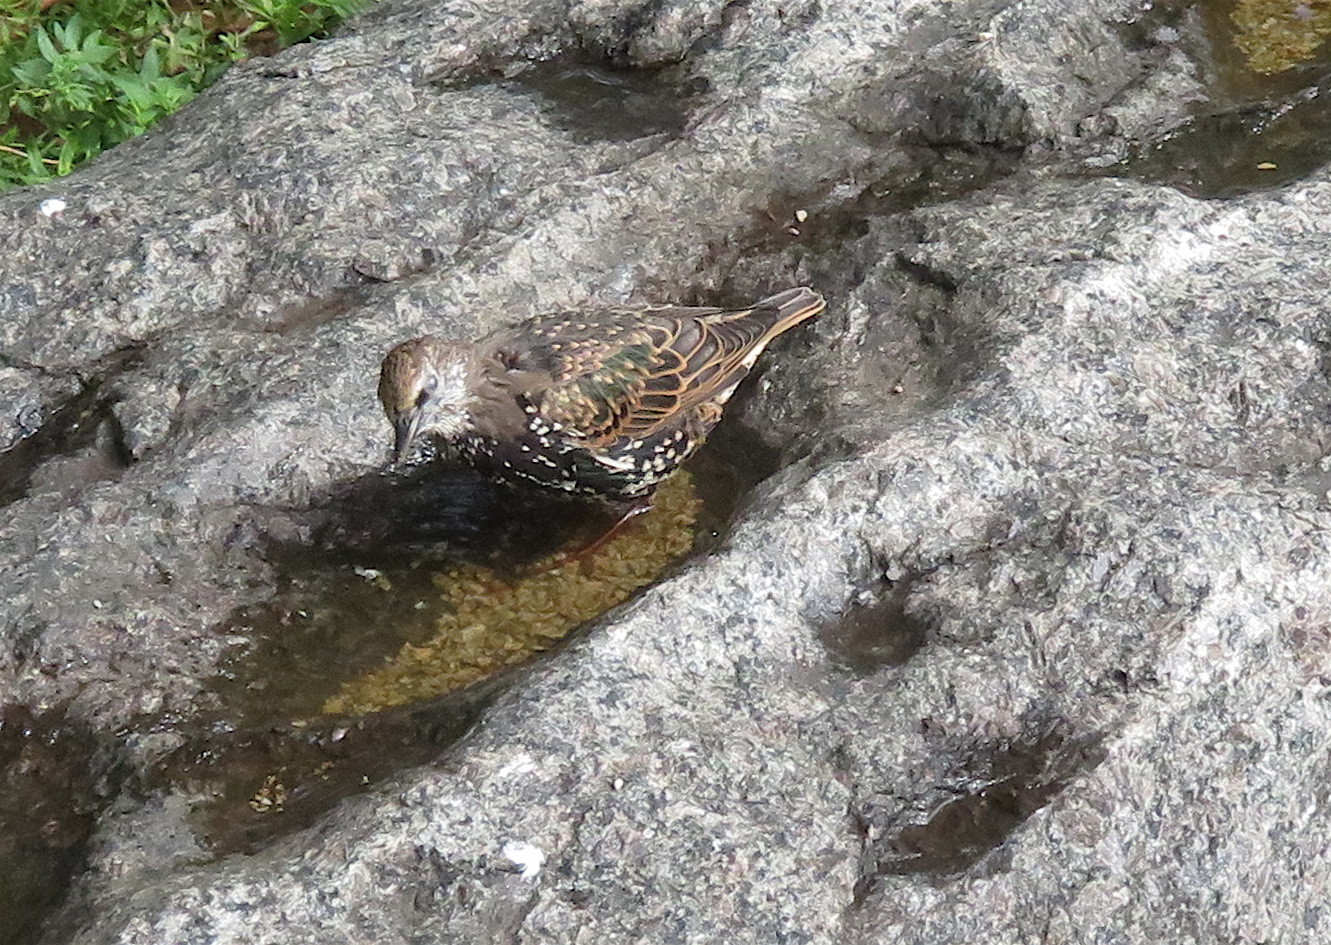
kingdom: Animalia
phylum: Chordata
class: Aves
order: Passeriformes
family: Sturnidae
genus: Sturnus
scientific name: Sturnus vulgaris
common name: Common starling
